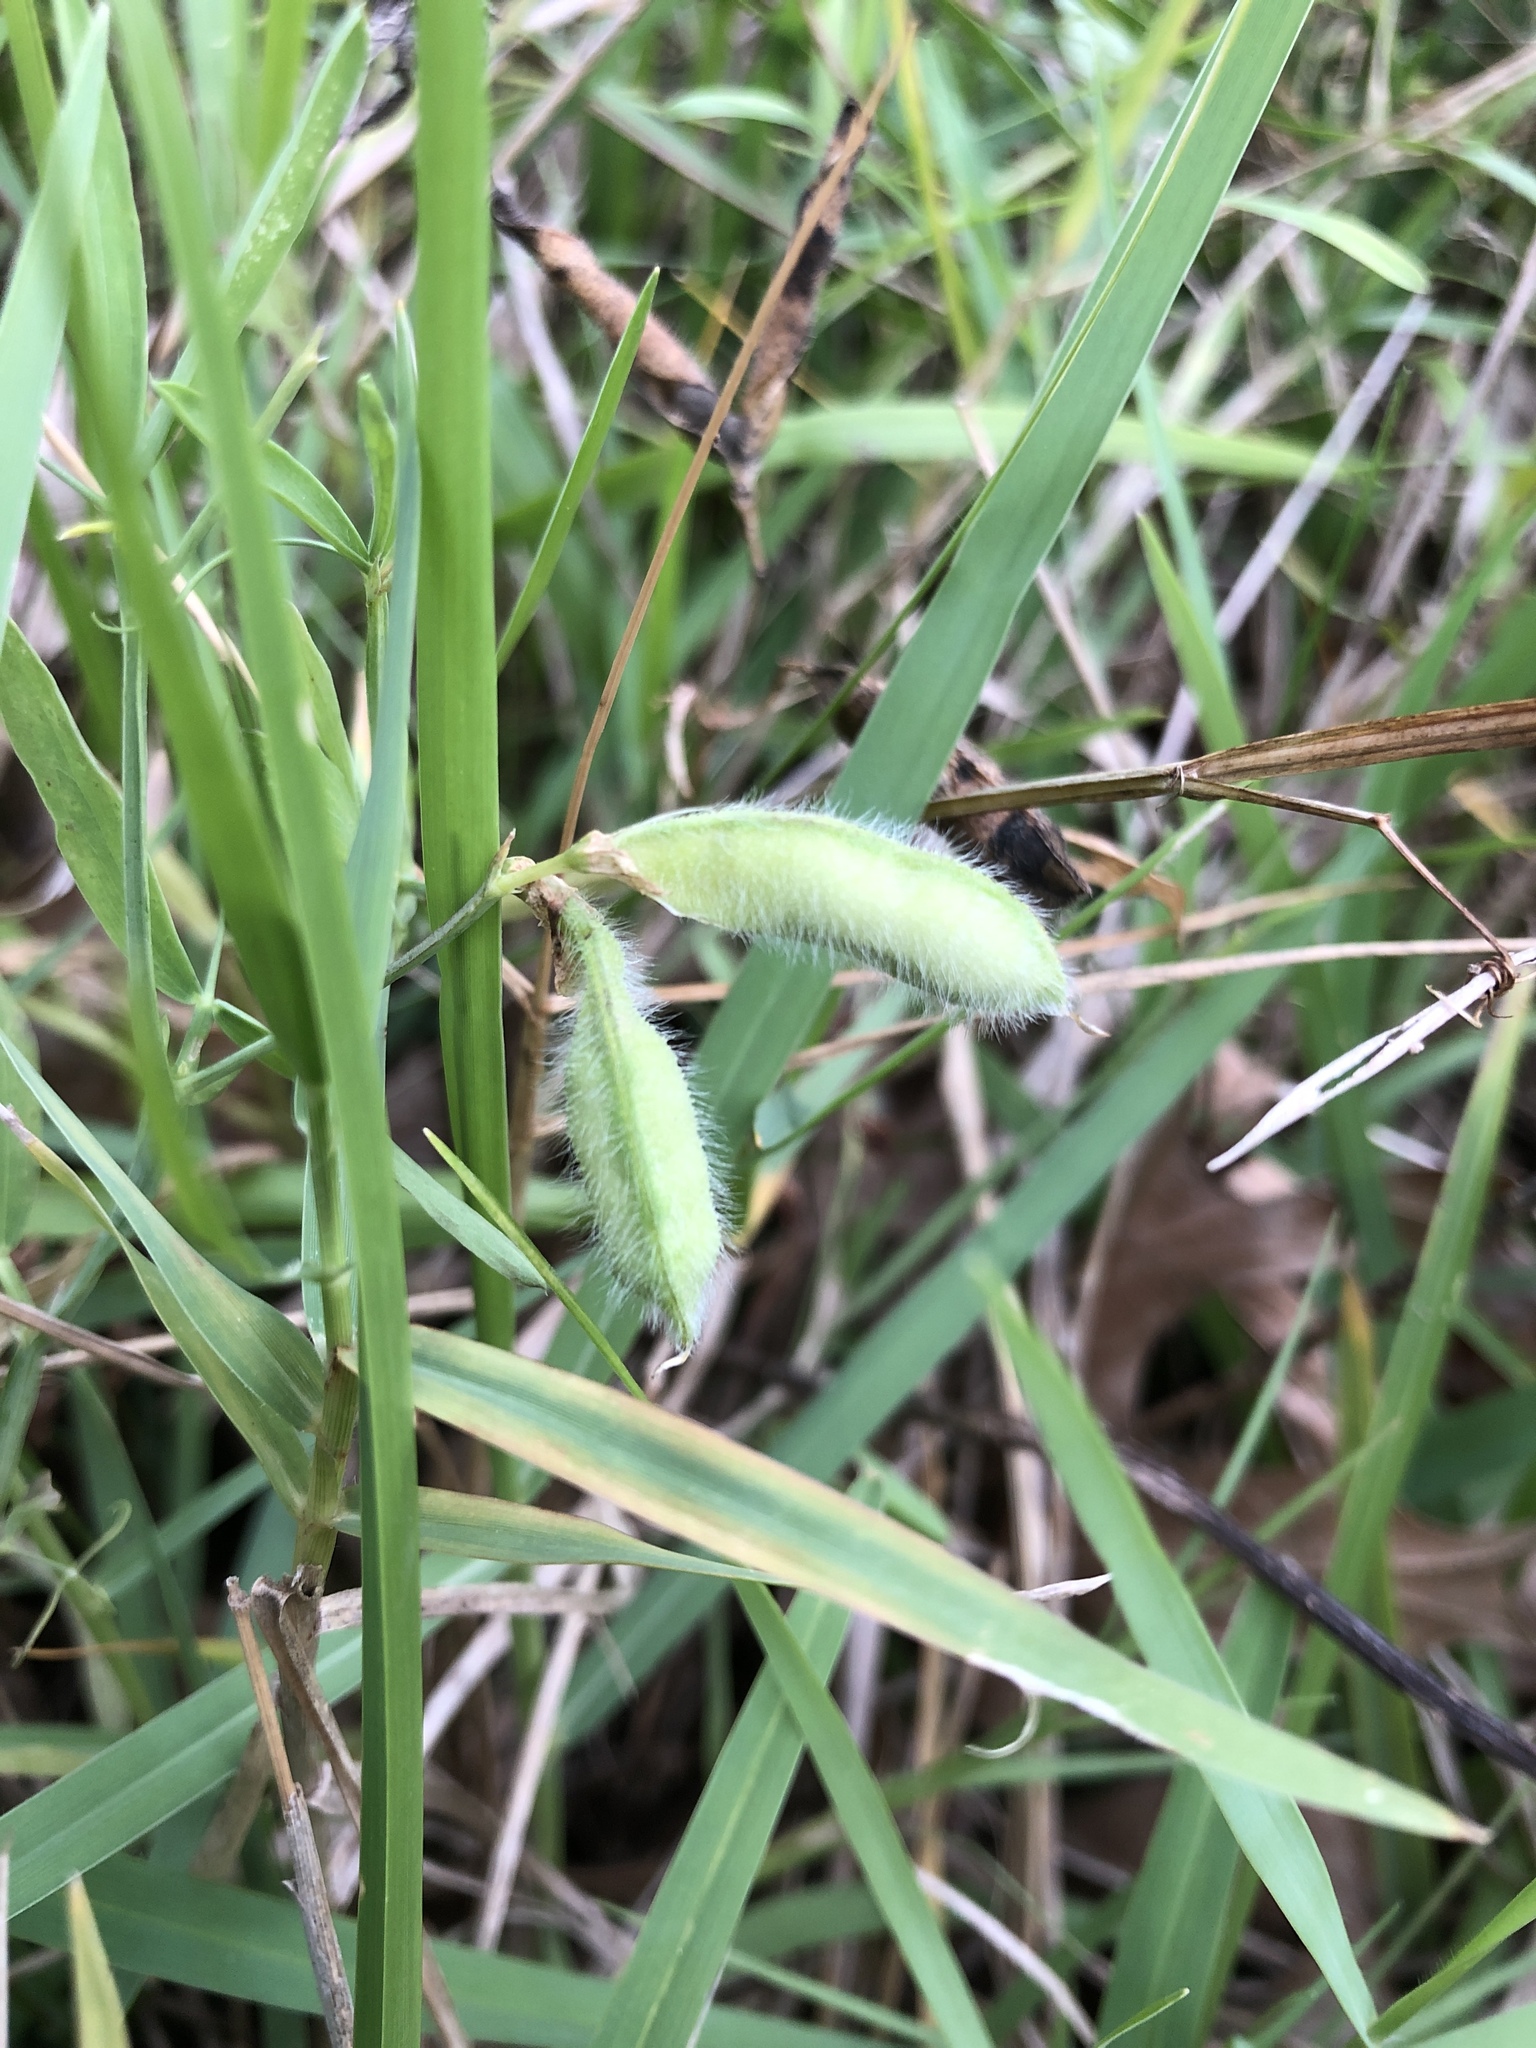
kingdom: Plantae
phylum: Tracheophyta
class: Magnoliopsida
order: Fabales
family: Fabaceae
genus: Lathyrus
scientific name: Lathyrus hirsutus
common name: Hairy vetchling
